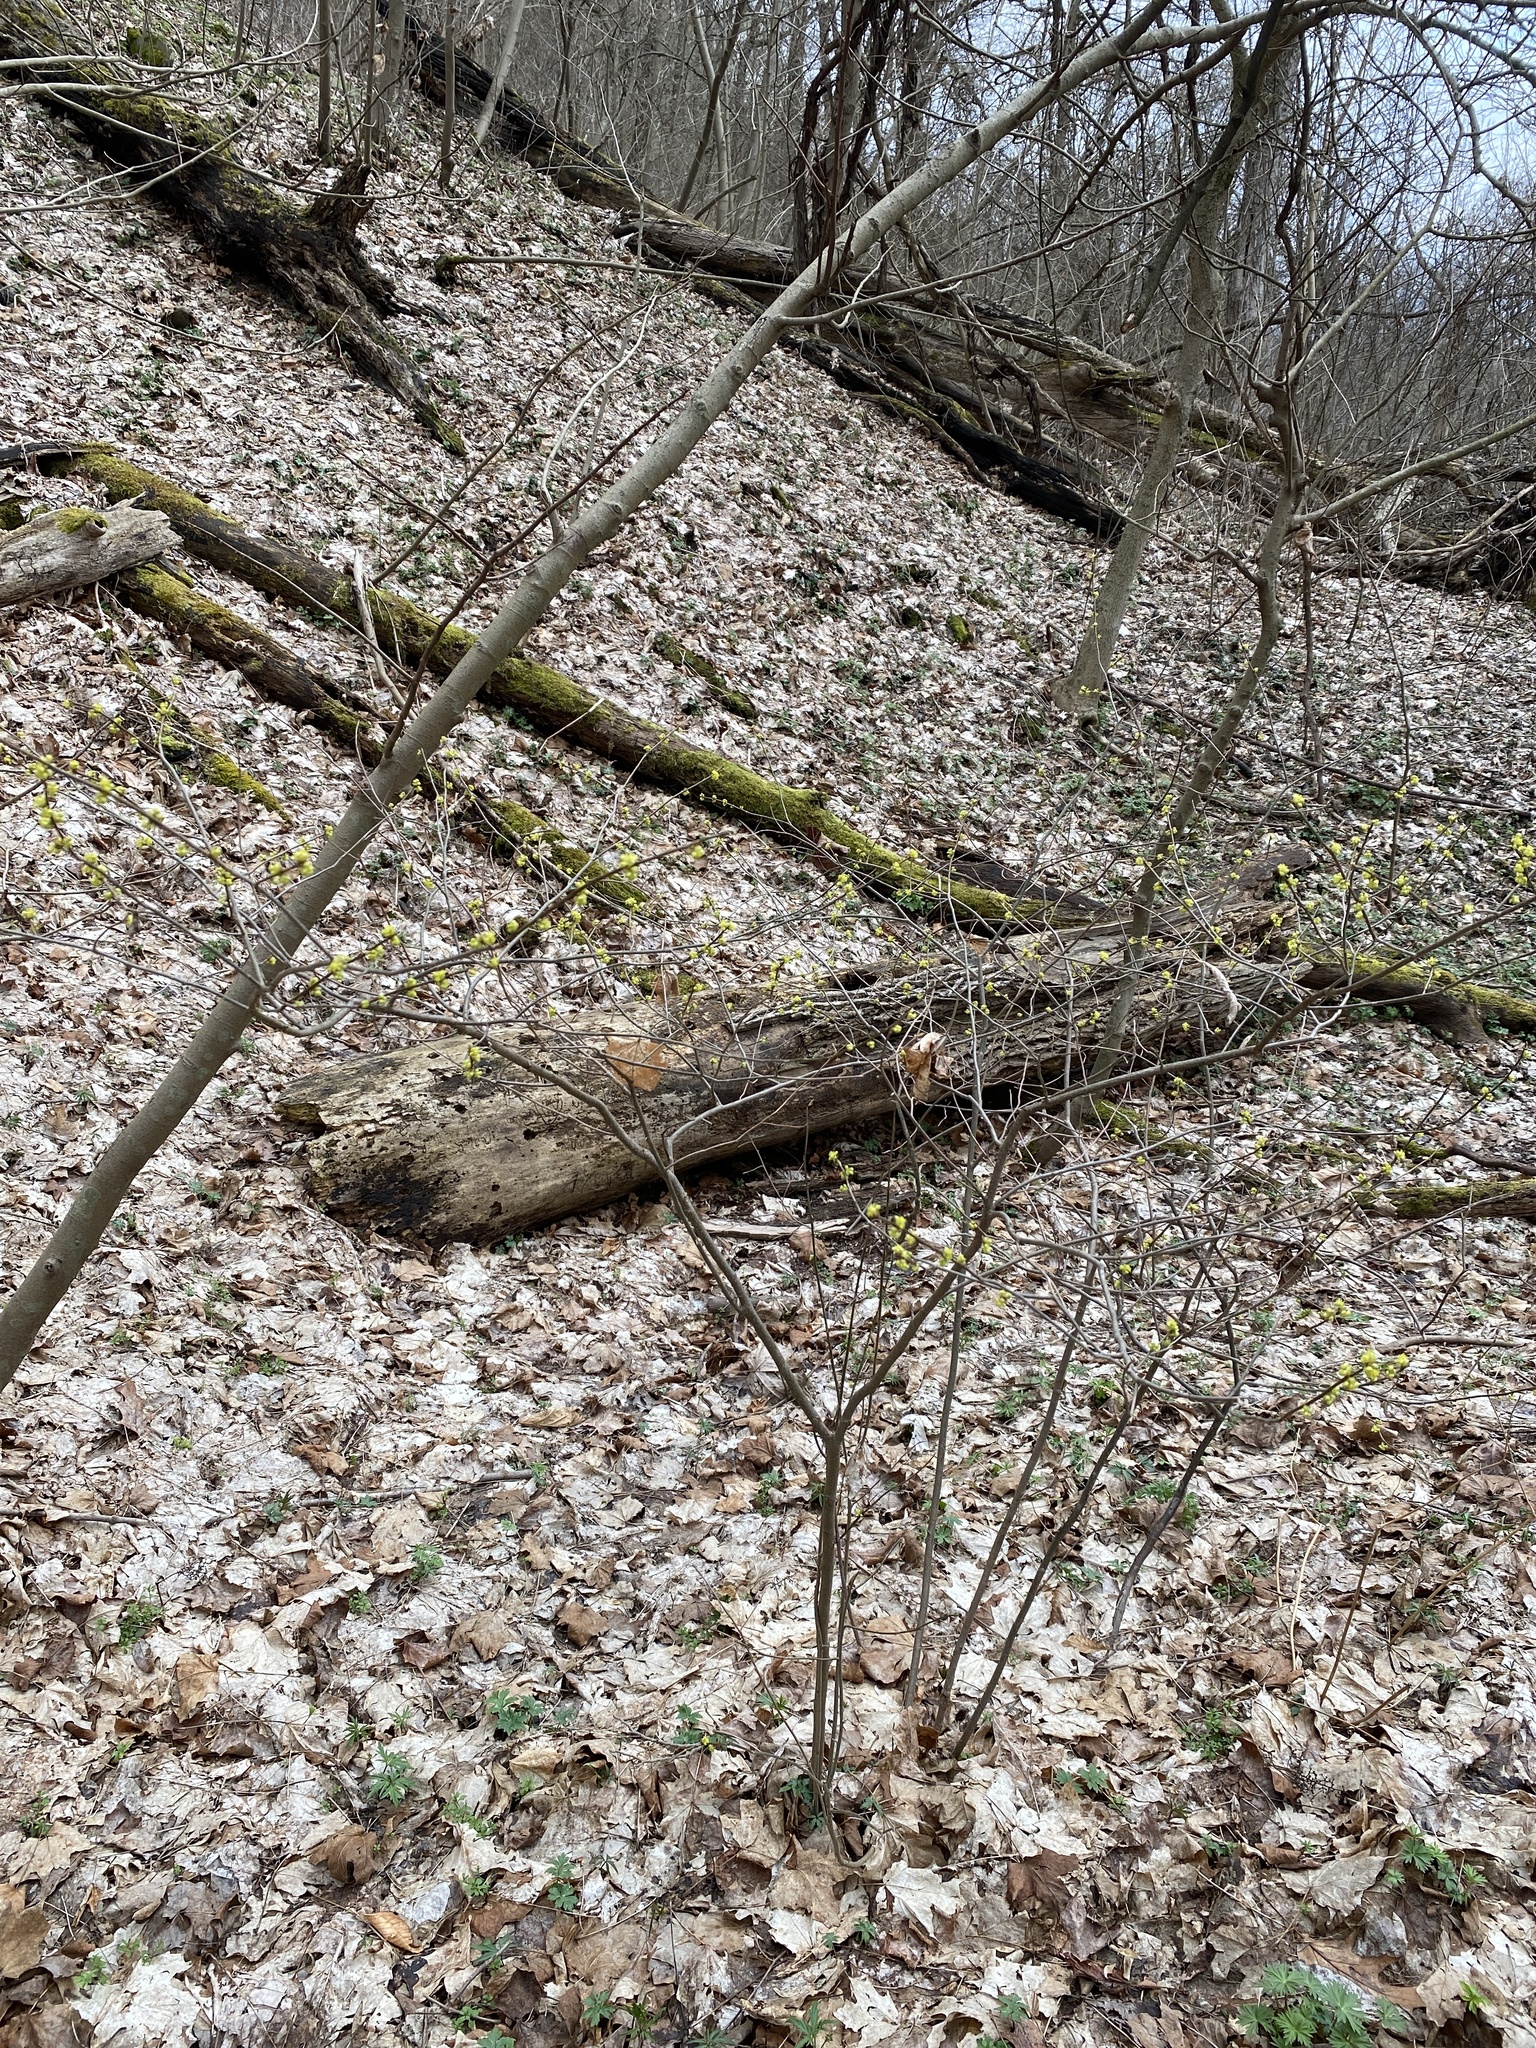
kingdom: Plantae
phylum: Tracheophyta
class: Magnoliopsida
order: Laurales
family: Lauraceae
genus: Lindera
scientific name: Lindera benzoin
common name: Spicebush
